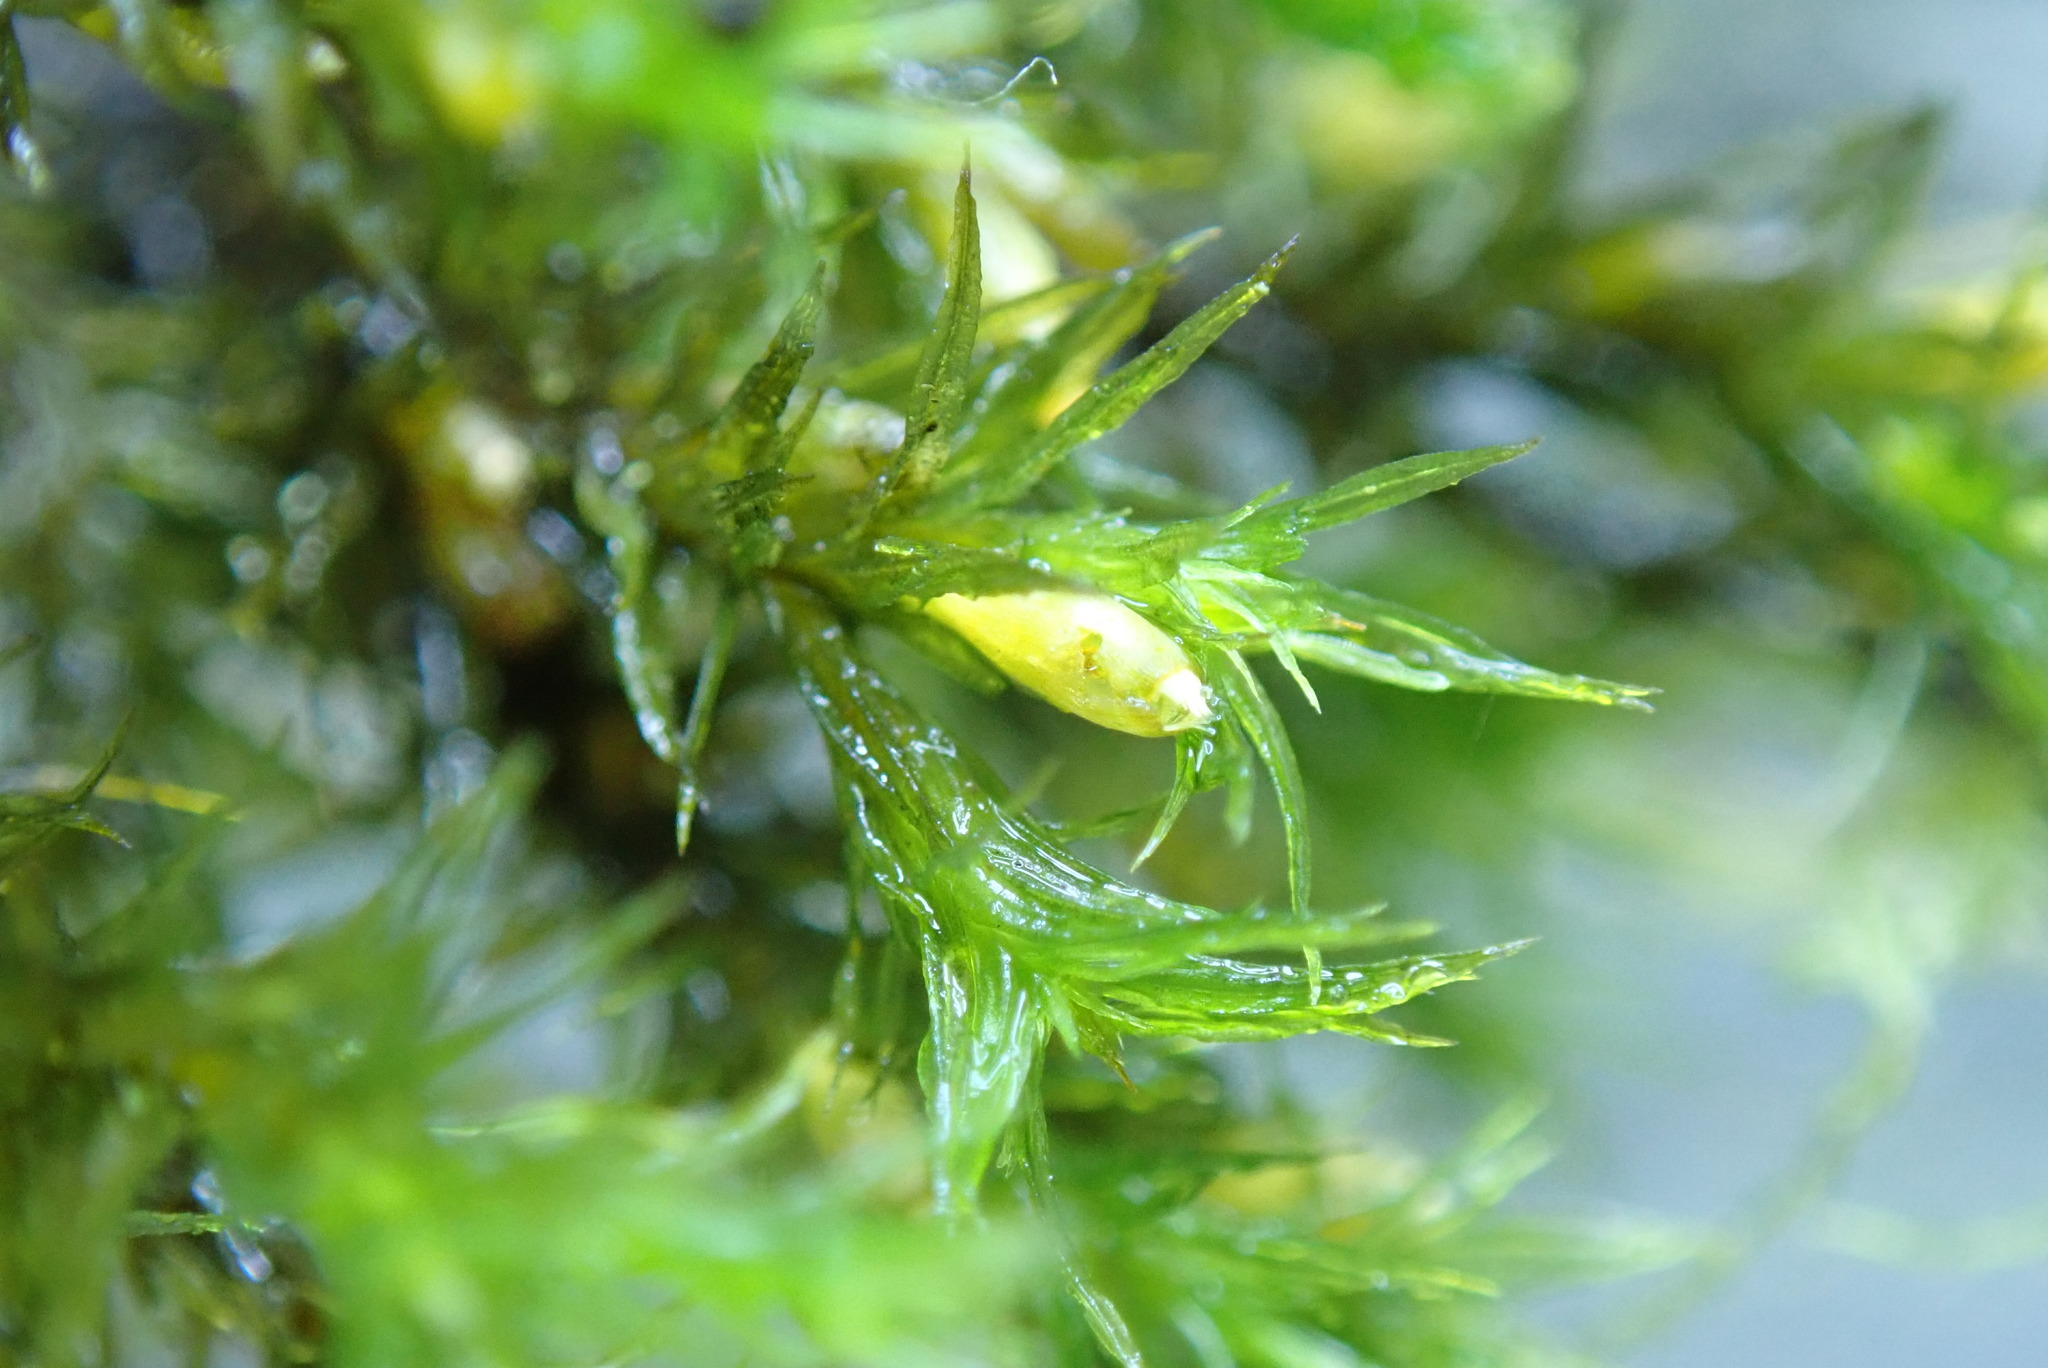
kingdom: Plantae
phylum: Bryophyta
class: Bryopsida
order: Orthotrichales
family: Orthotrichaceae
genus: Pulvigera
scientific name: Pulvigera lyellii
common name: Lyell's bristle-moss
